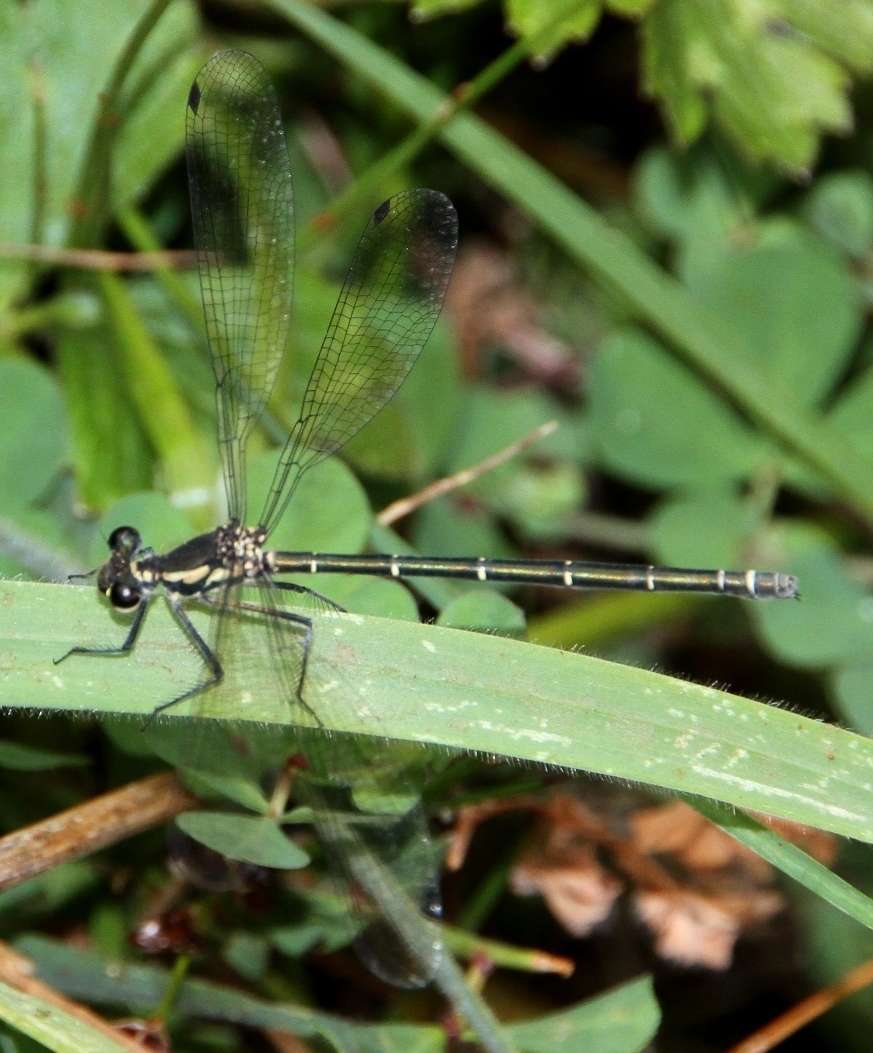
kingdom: Animalia
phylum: Arthropoda
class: Insecta
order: Odonata
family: Argiolestidae
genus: Austroargiolestes
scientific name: Austroargiolestes icteromelas
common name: Common flatwing
